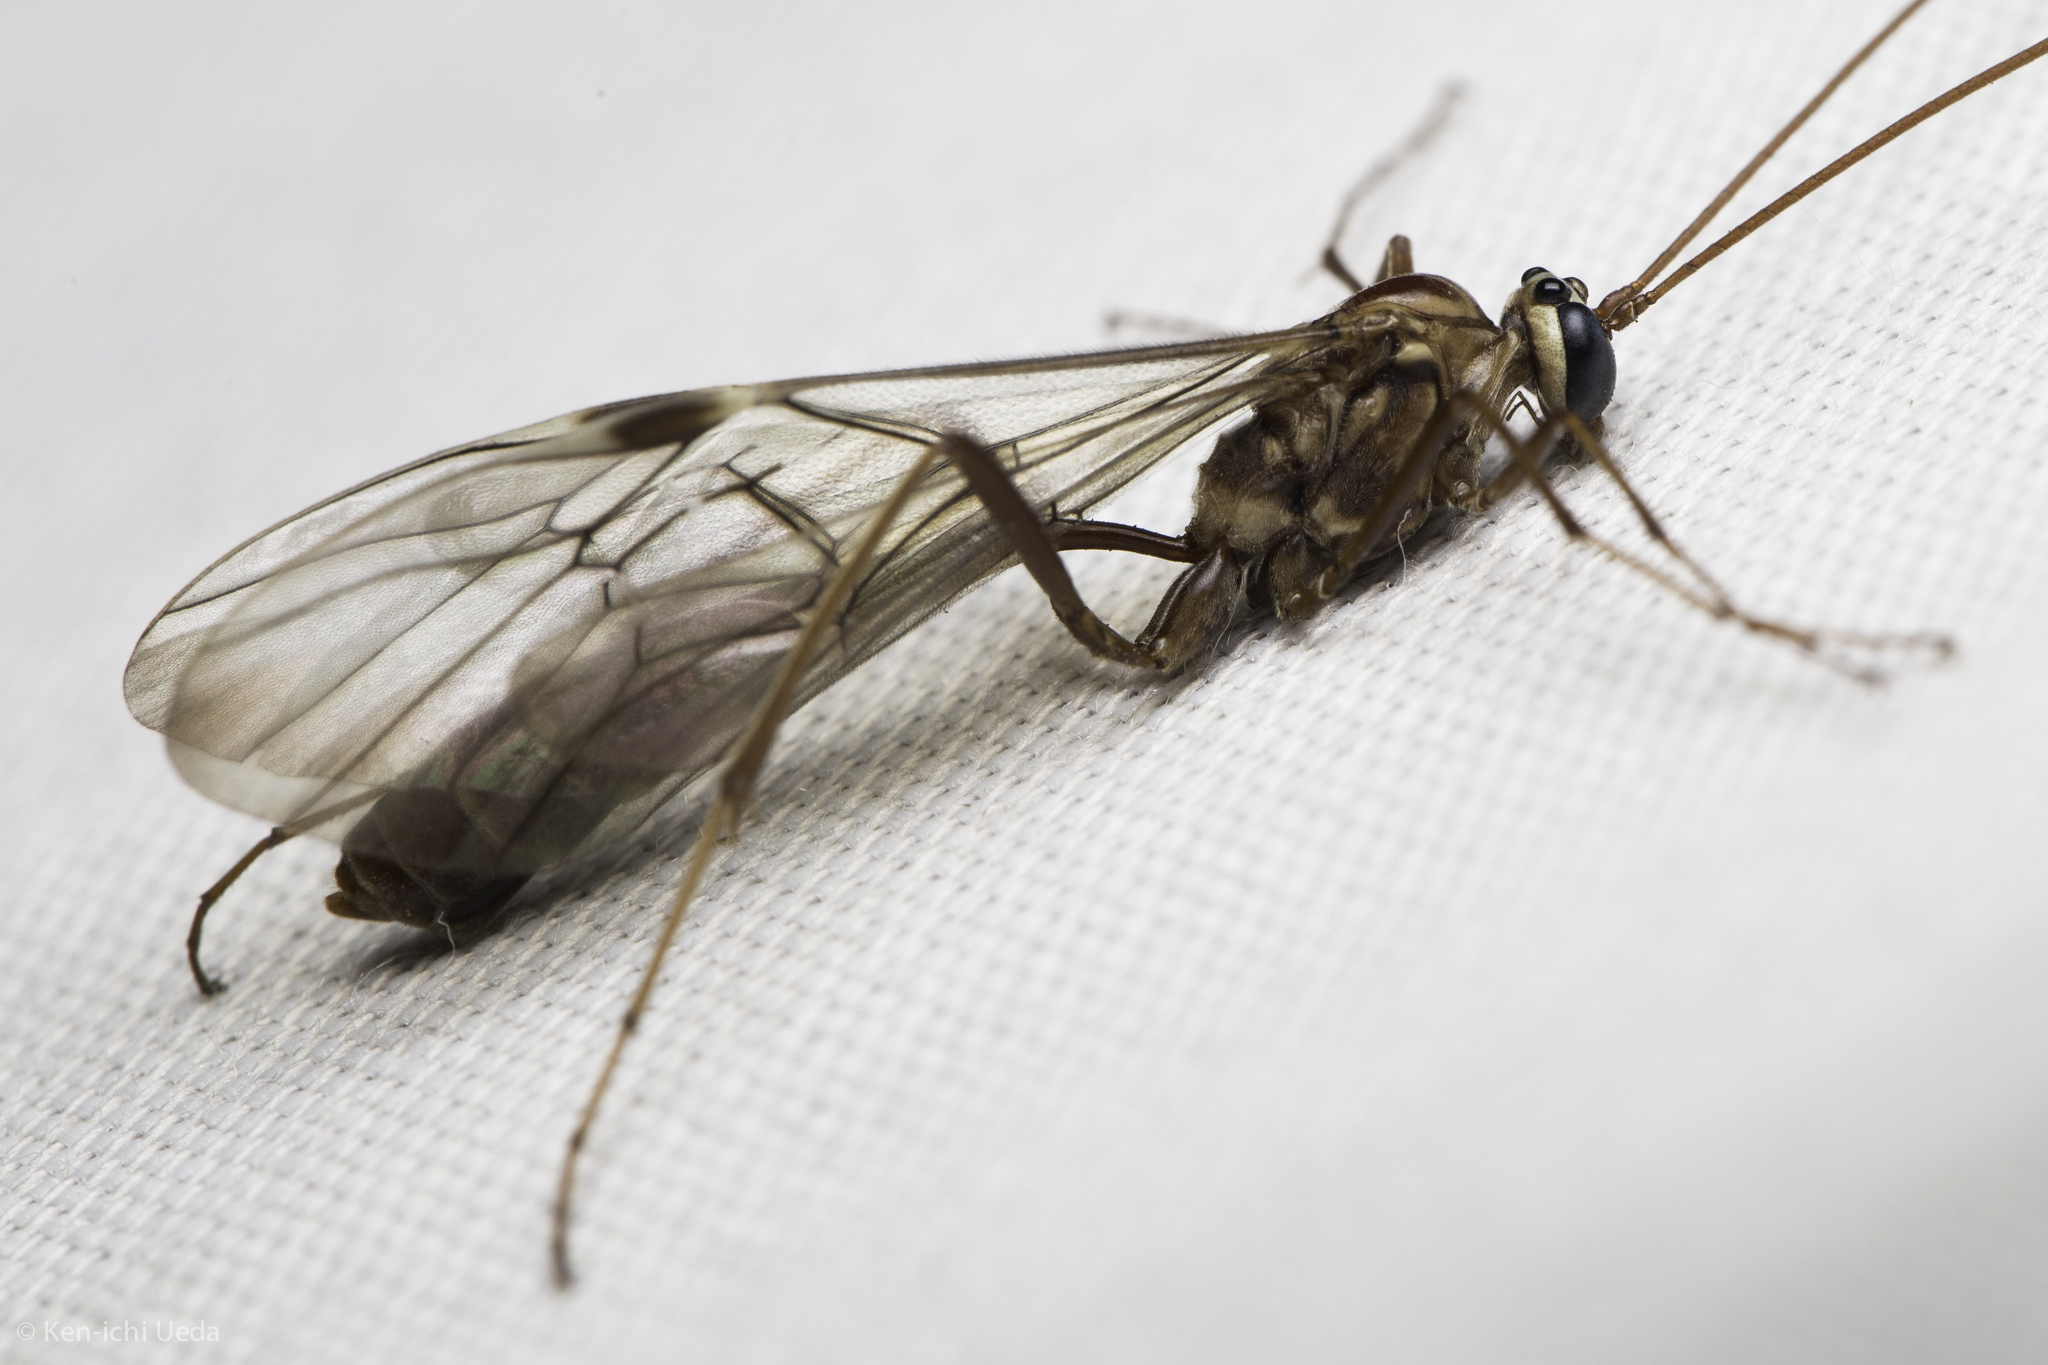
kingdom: Animalia
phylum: Arthropoda
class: Insecta
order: Hymenoptera
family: Ichneumonidae
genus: Ophion
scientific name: Ophion
